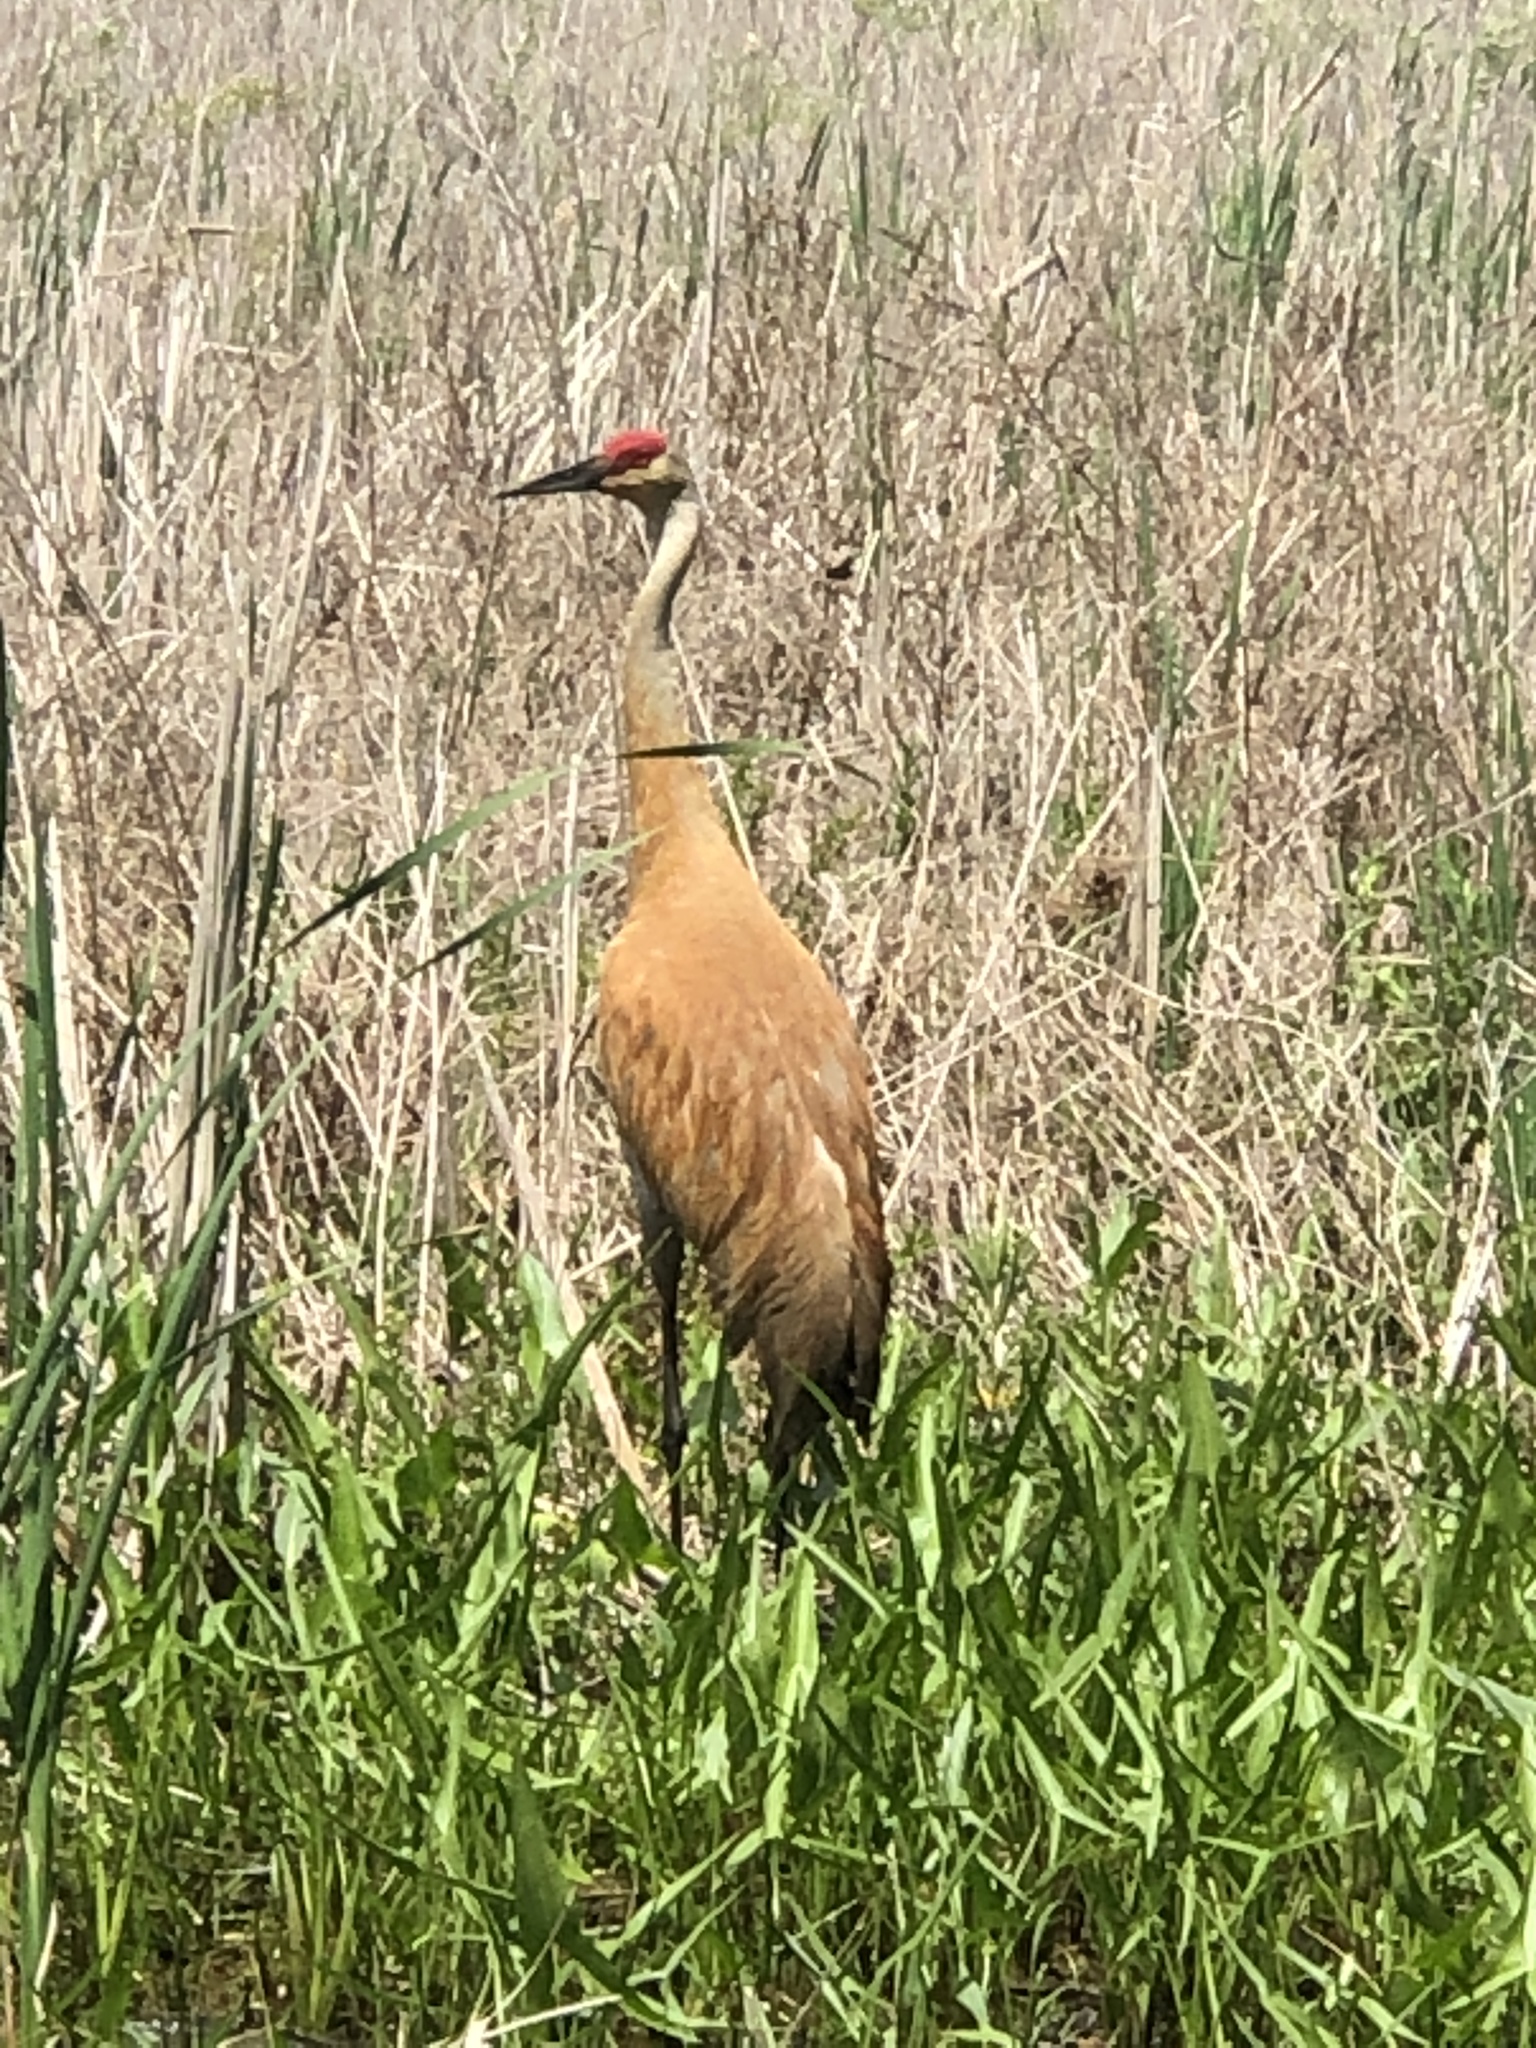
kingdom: Animalia
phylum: Chordata
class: Aves
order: Gruiformes
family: Gruidae
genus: Grus
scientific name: Grus canadensis
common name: Sandhill crane
